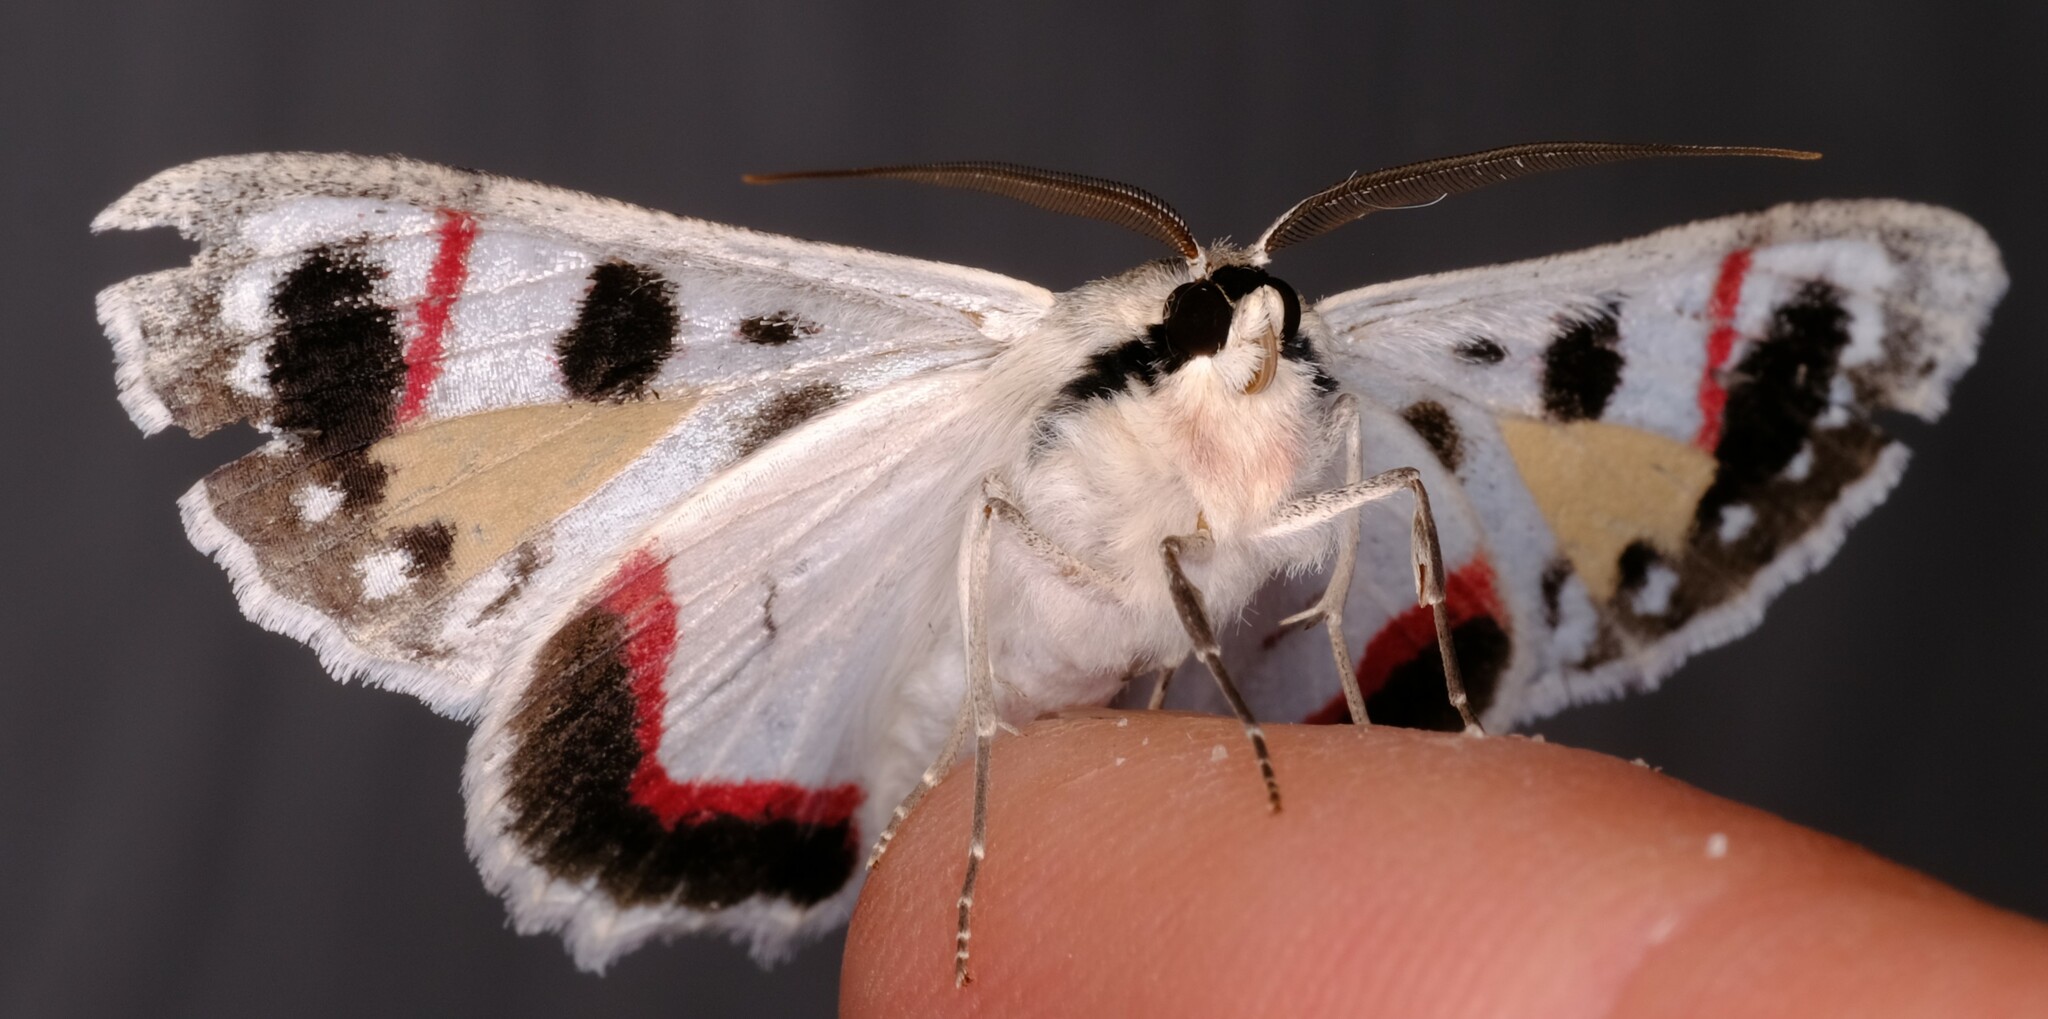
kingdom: Animalia
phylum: Arthropoda
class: Insecta
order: Lepidoptera
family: Geometridae
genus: Crypsiphona
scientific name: Crypsiphona ocultaria
